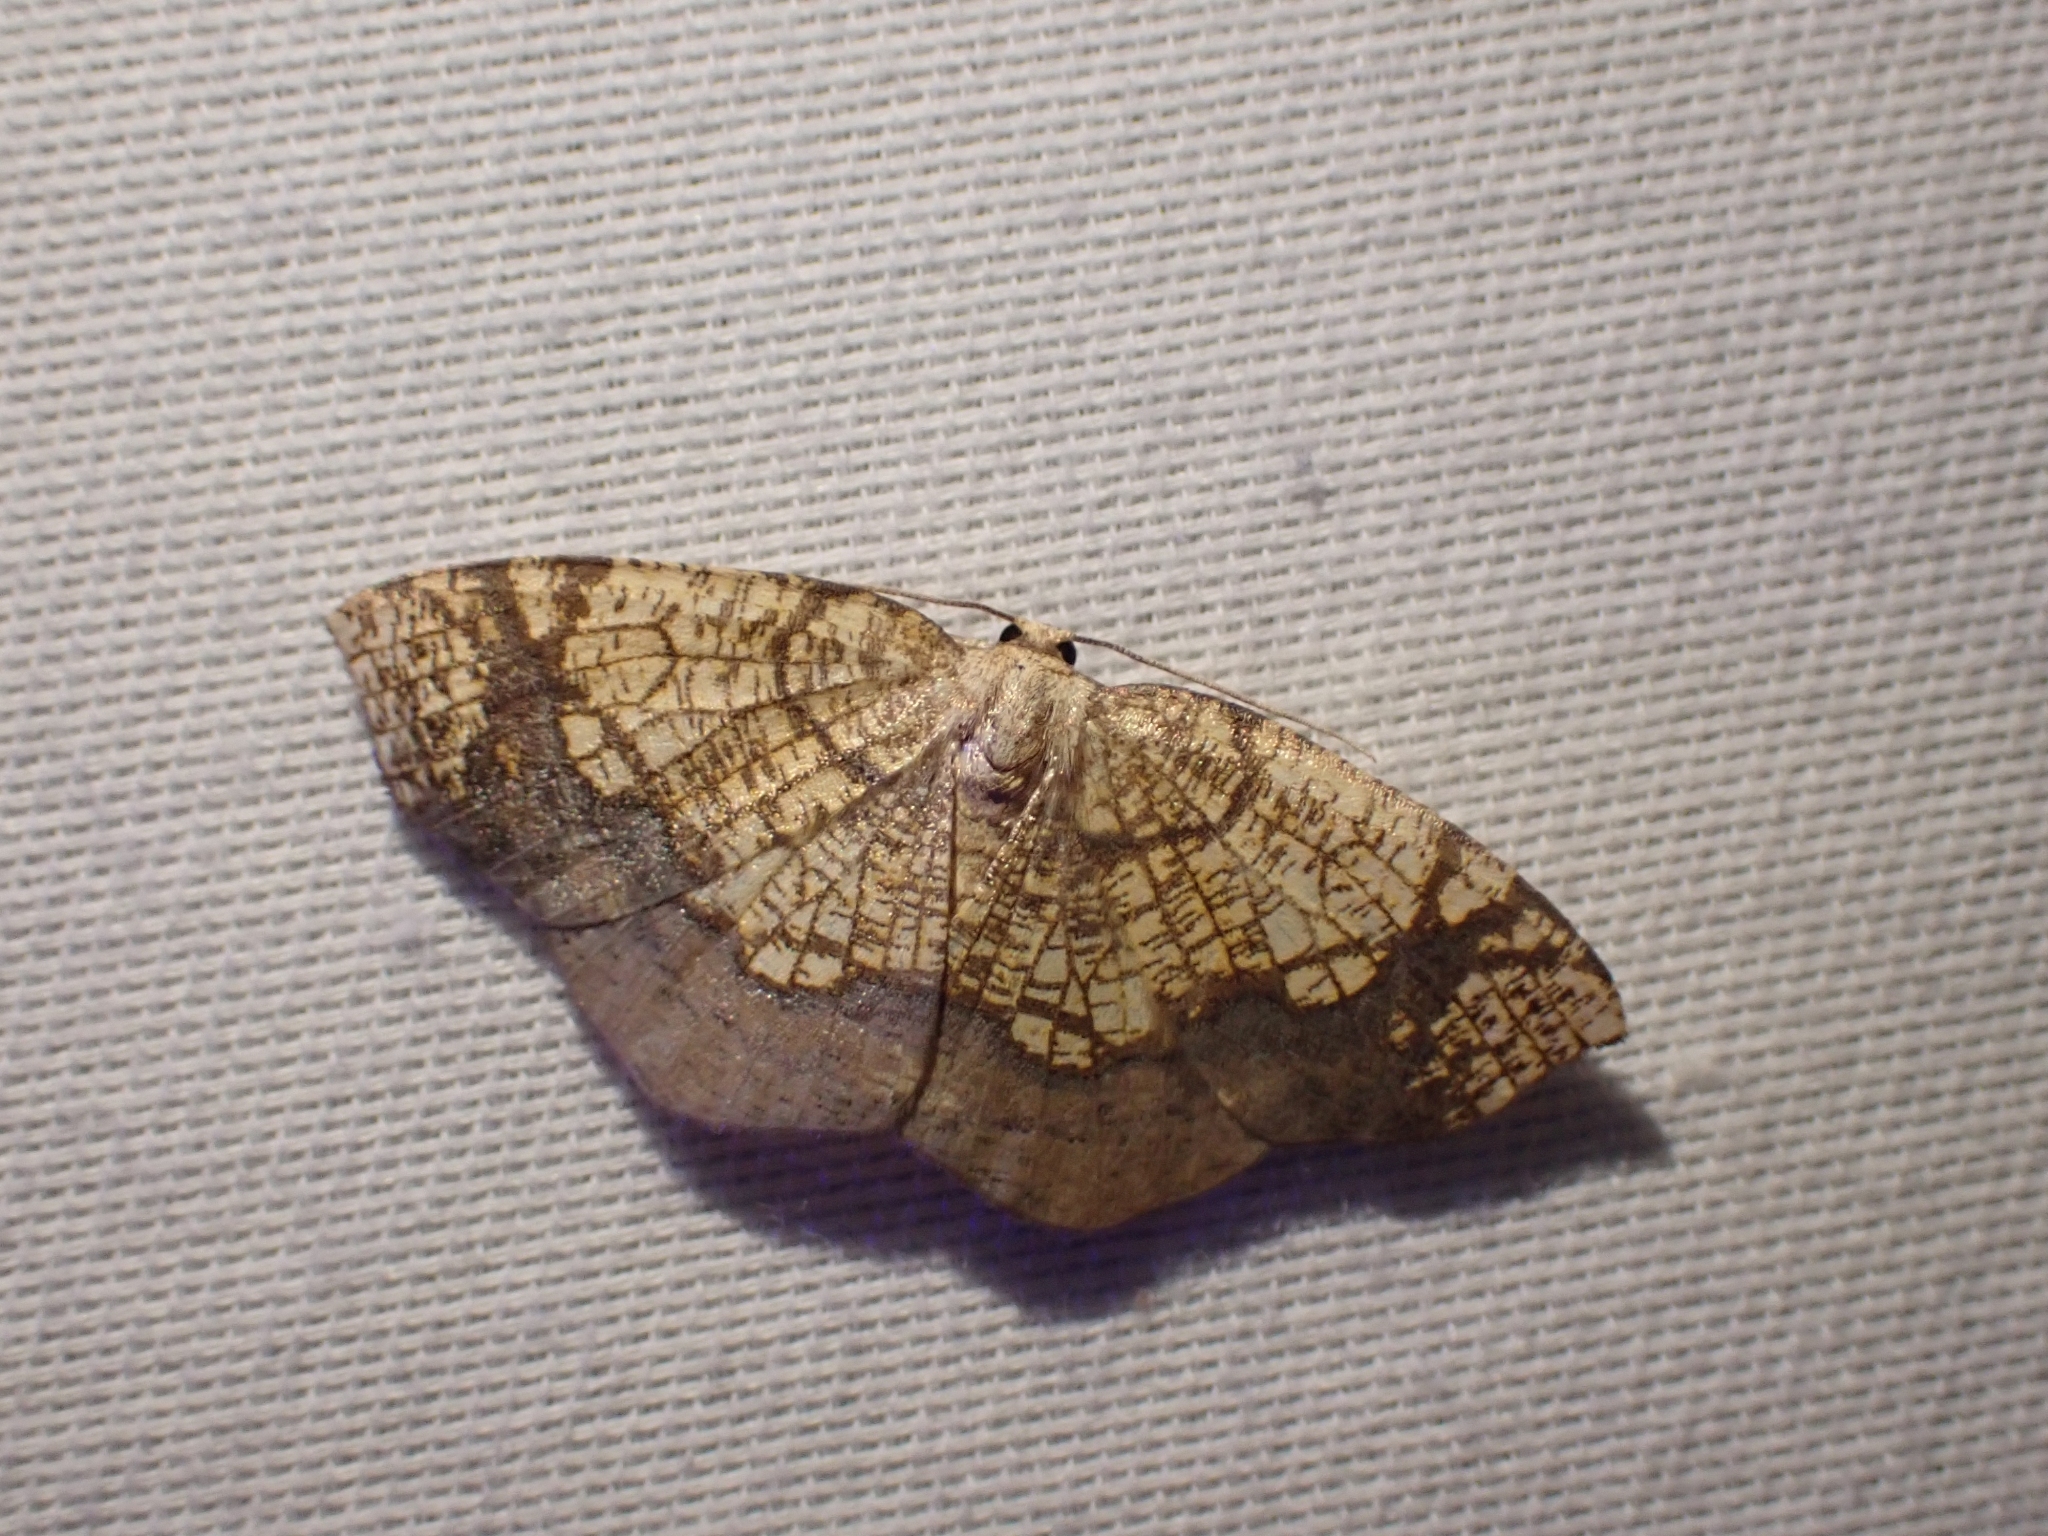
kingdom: Animalia
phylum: Arthropoda
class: Insecta
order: Lepidoptera
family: Geometridae
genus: Nematocampa
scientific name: Nematocampa resistaria
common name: Horned spanworm moth
